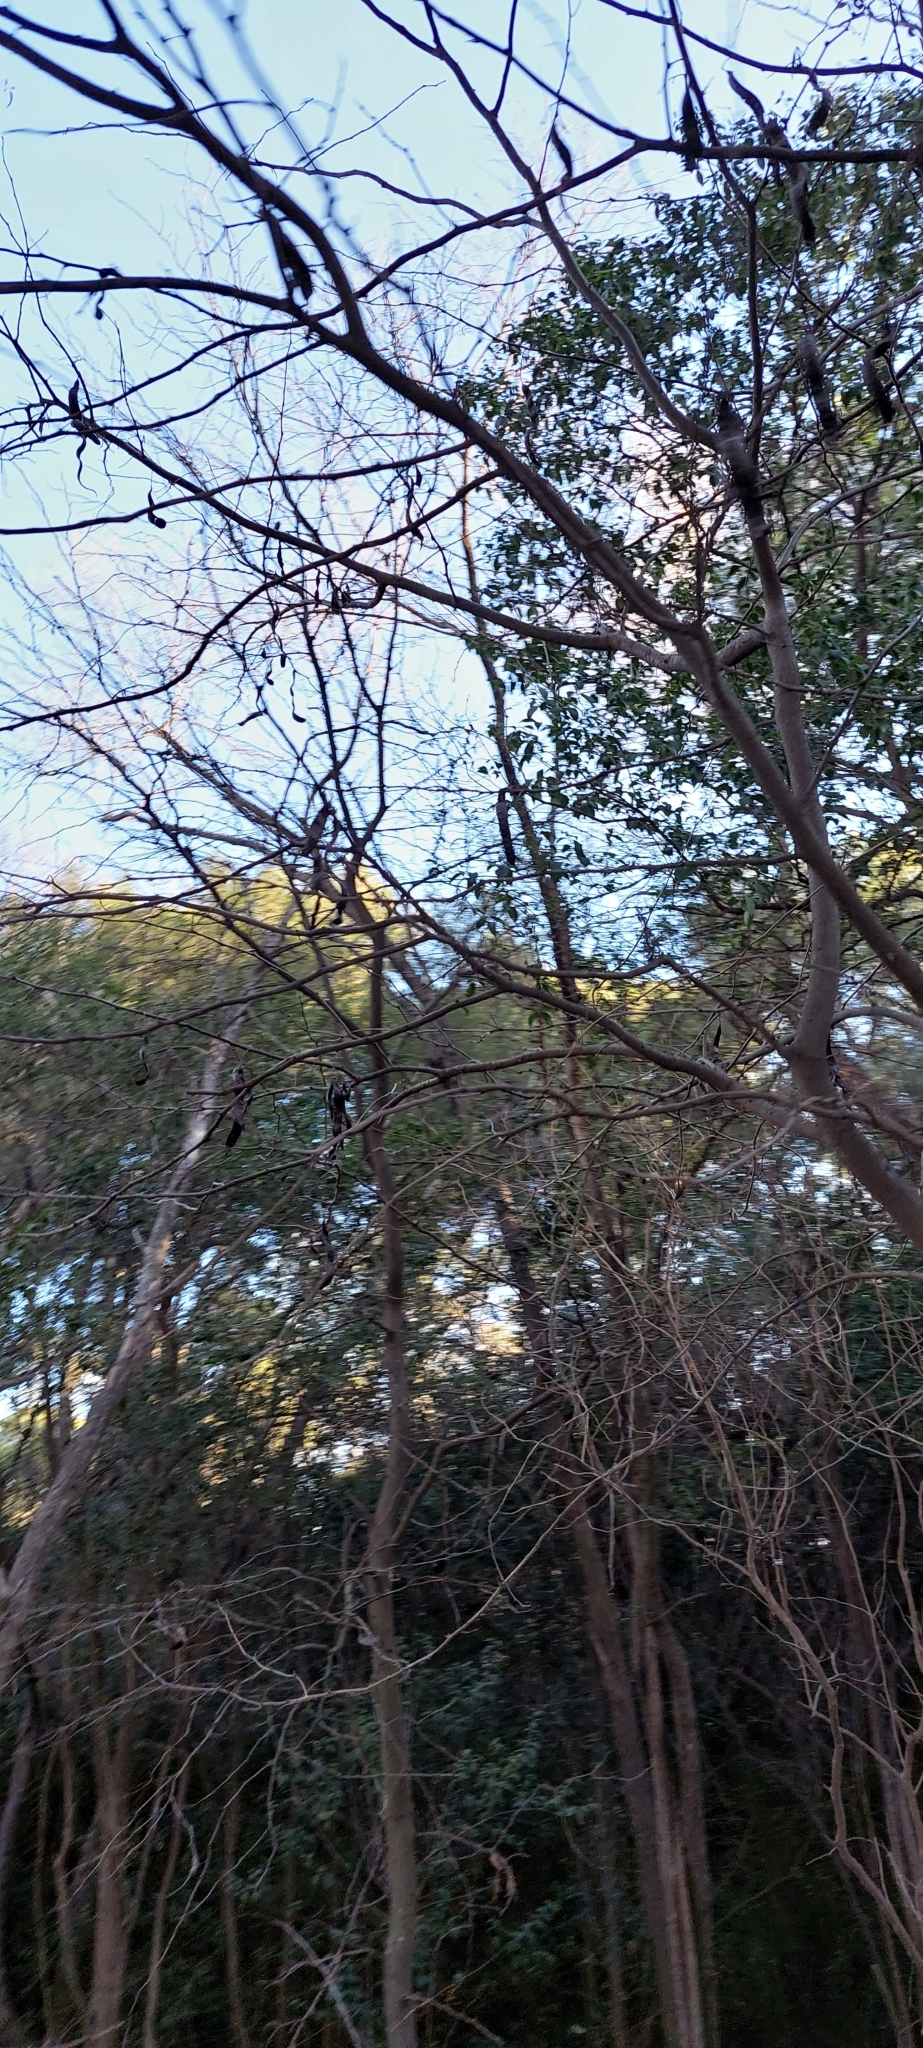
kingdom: Plantae
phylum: Tracheophyta
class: Magnoliopsida
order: Fabales
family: Fabaceae
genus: Gleditsia
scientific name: Gleditsia triacanthos
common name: Common honeylocust
